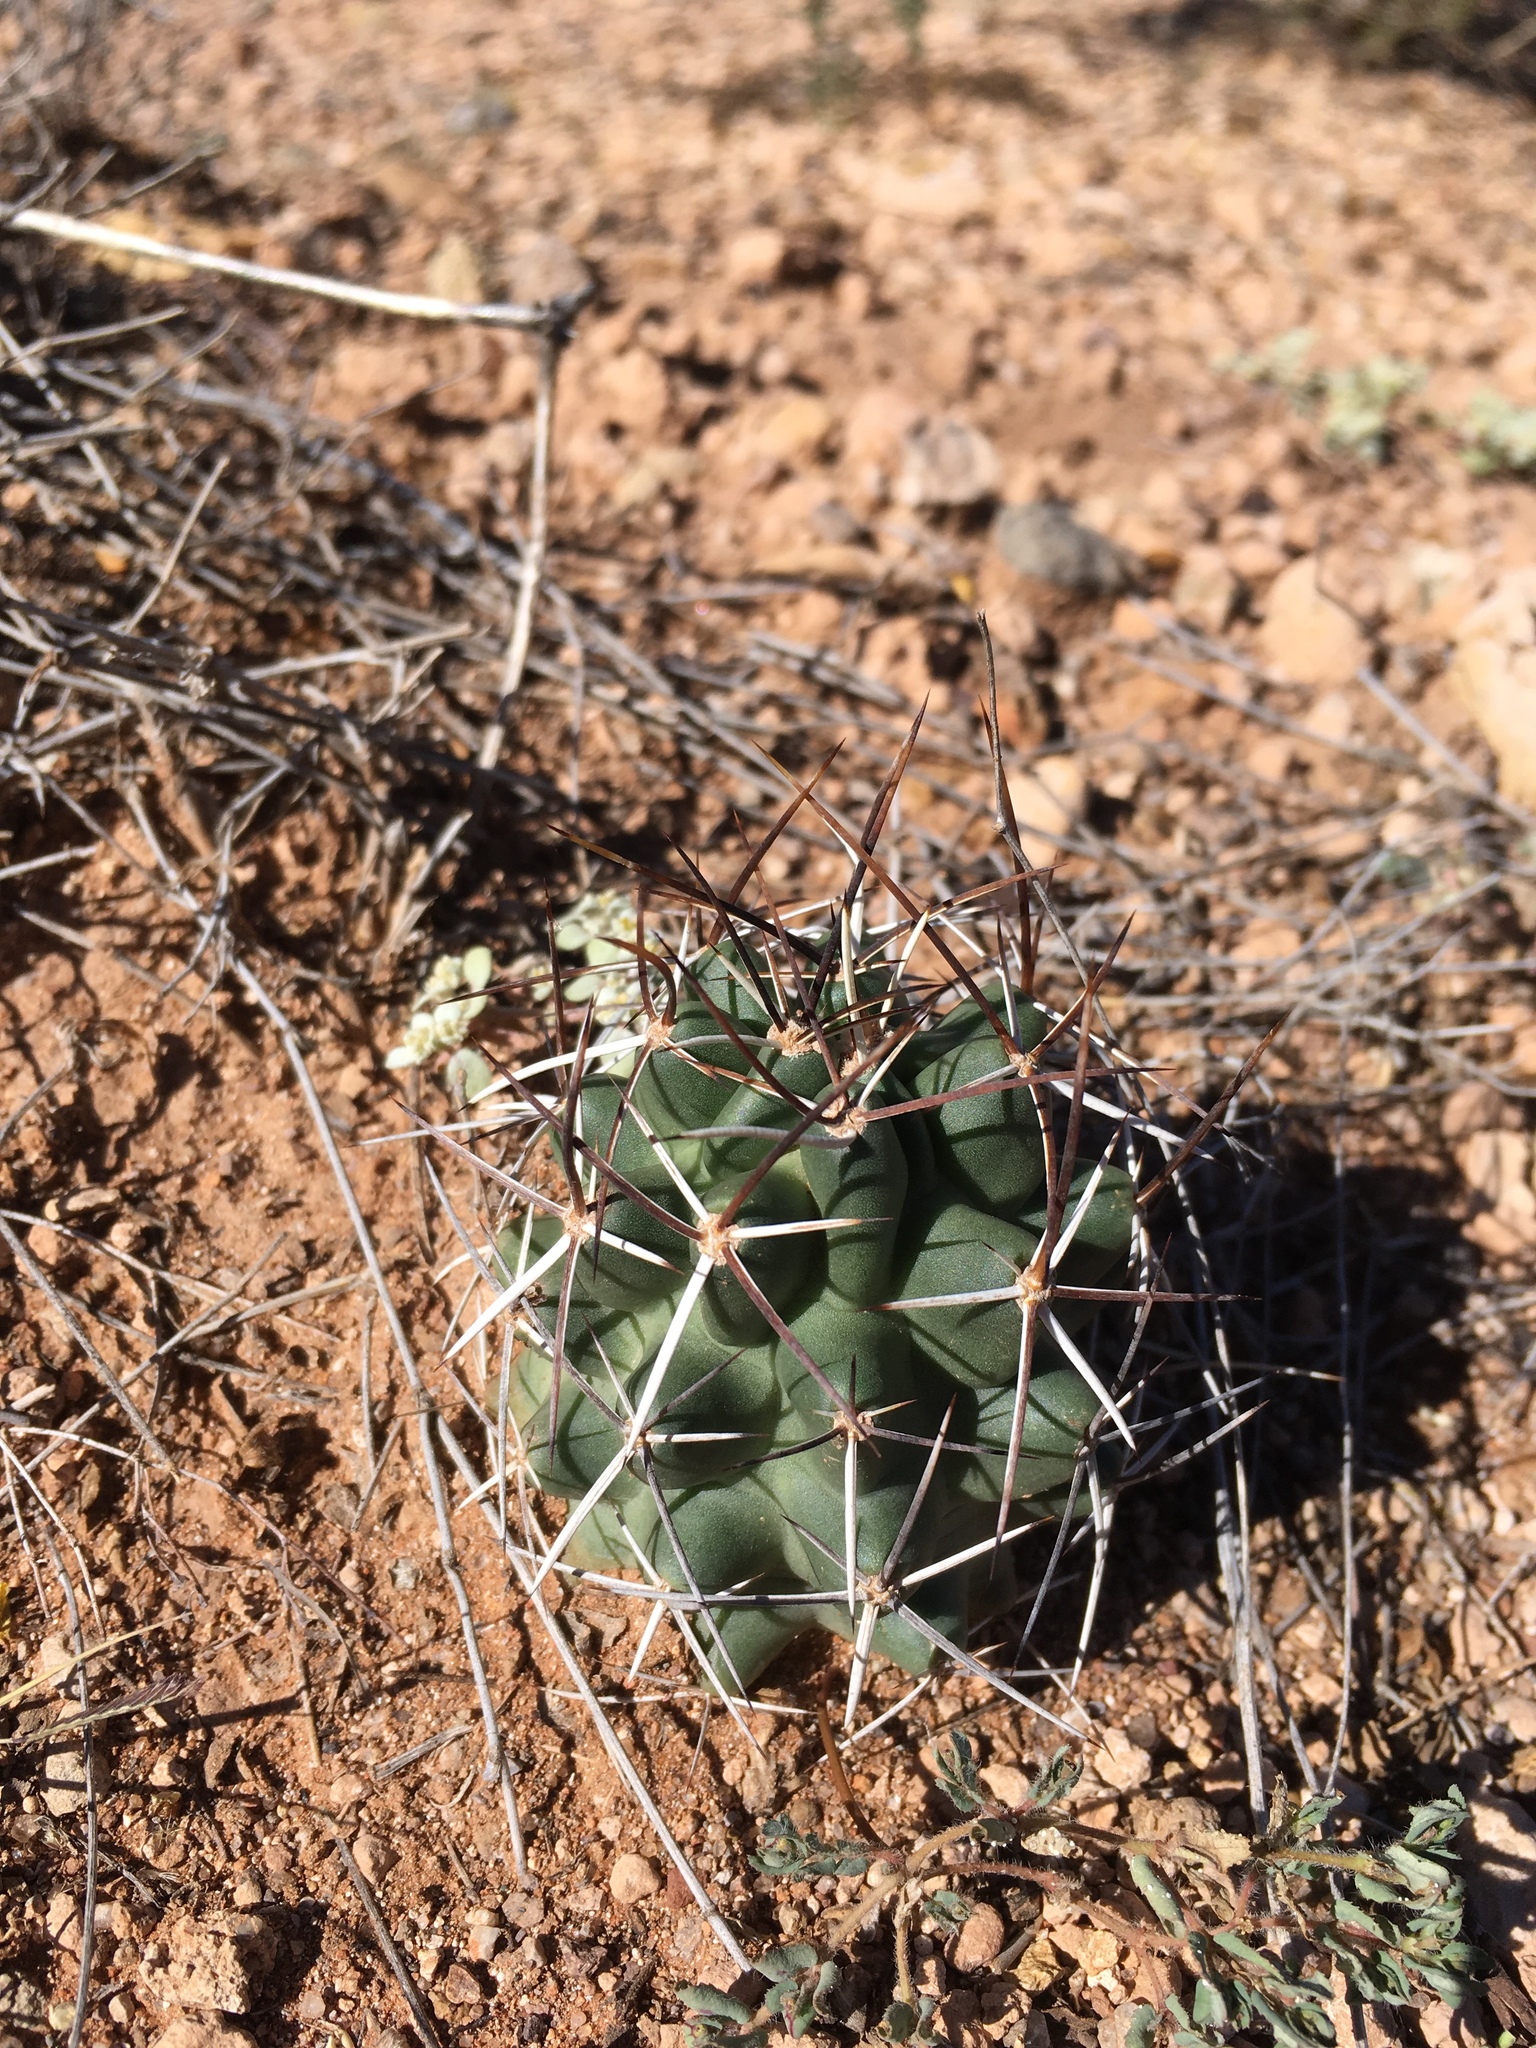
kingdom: Plantae
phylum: Tracheophyta
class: Magnoliopsida
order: Caryophyllales
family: Cactaceae
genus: Echinocereus
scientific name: Echinocereus fendleri
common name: Fendler's hedgehog cactus
